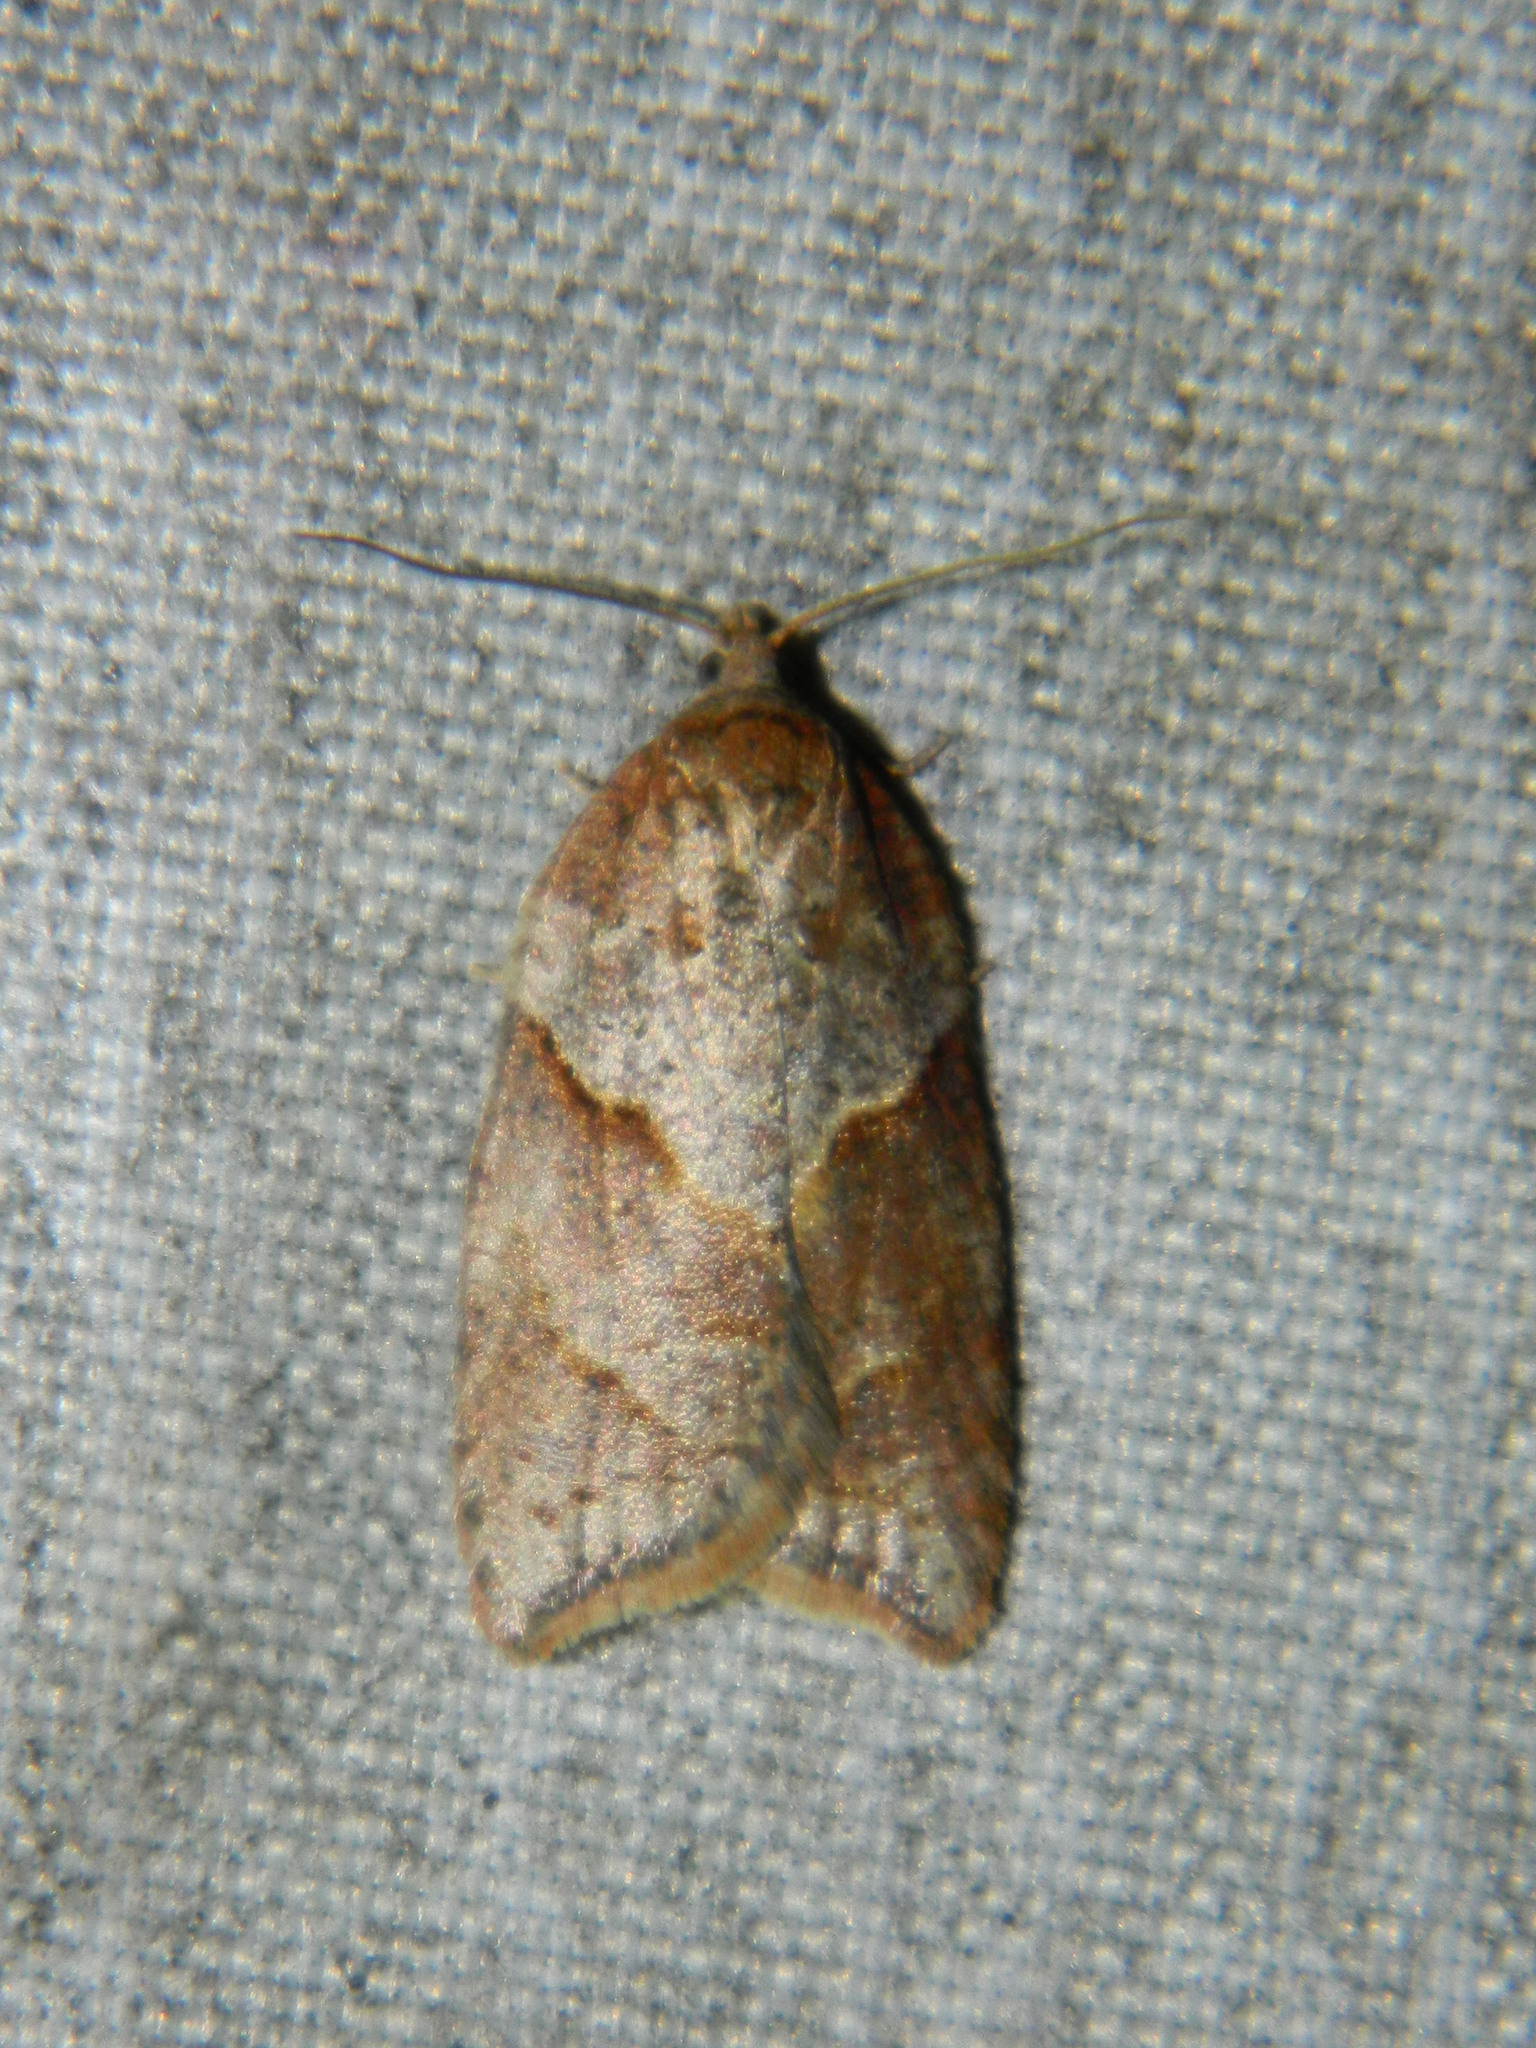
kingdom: Animalia
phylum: Arthropoda
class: Insecta
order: Lepidoptera
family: Tortricidae
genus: Acleris
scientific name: Acleris maccana
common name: Marbled button
